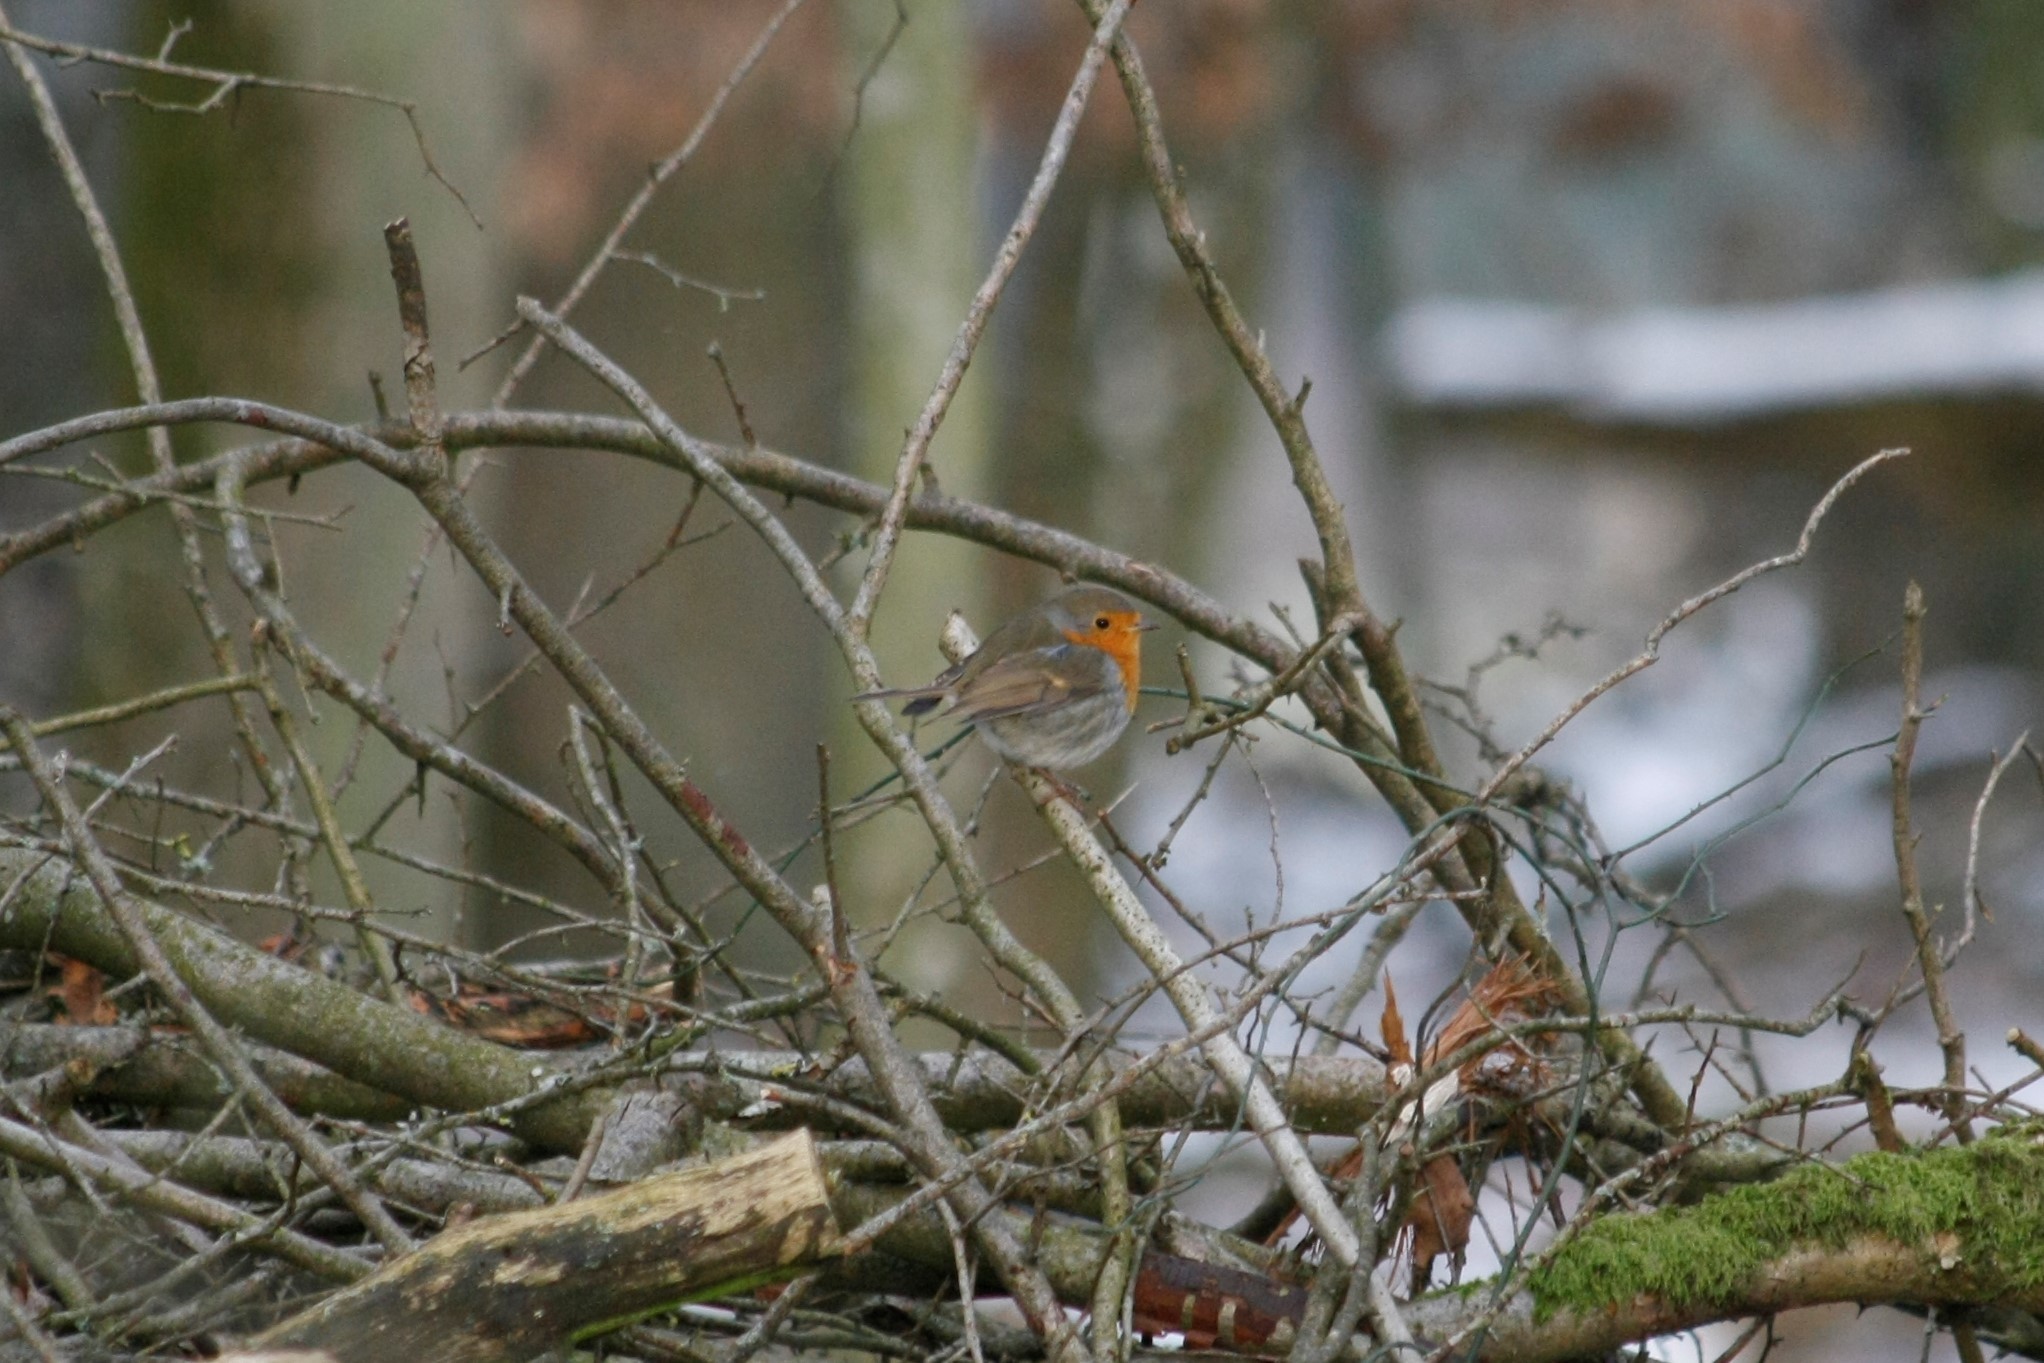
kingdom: Animalia
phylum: Chordata
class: Aves
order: Passeriformes
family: Muscicapidae
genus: Erithacus
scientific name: Erithacus rubecula
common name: European robin
